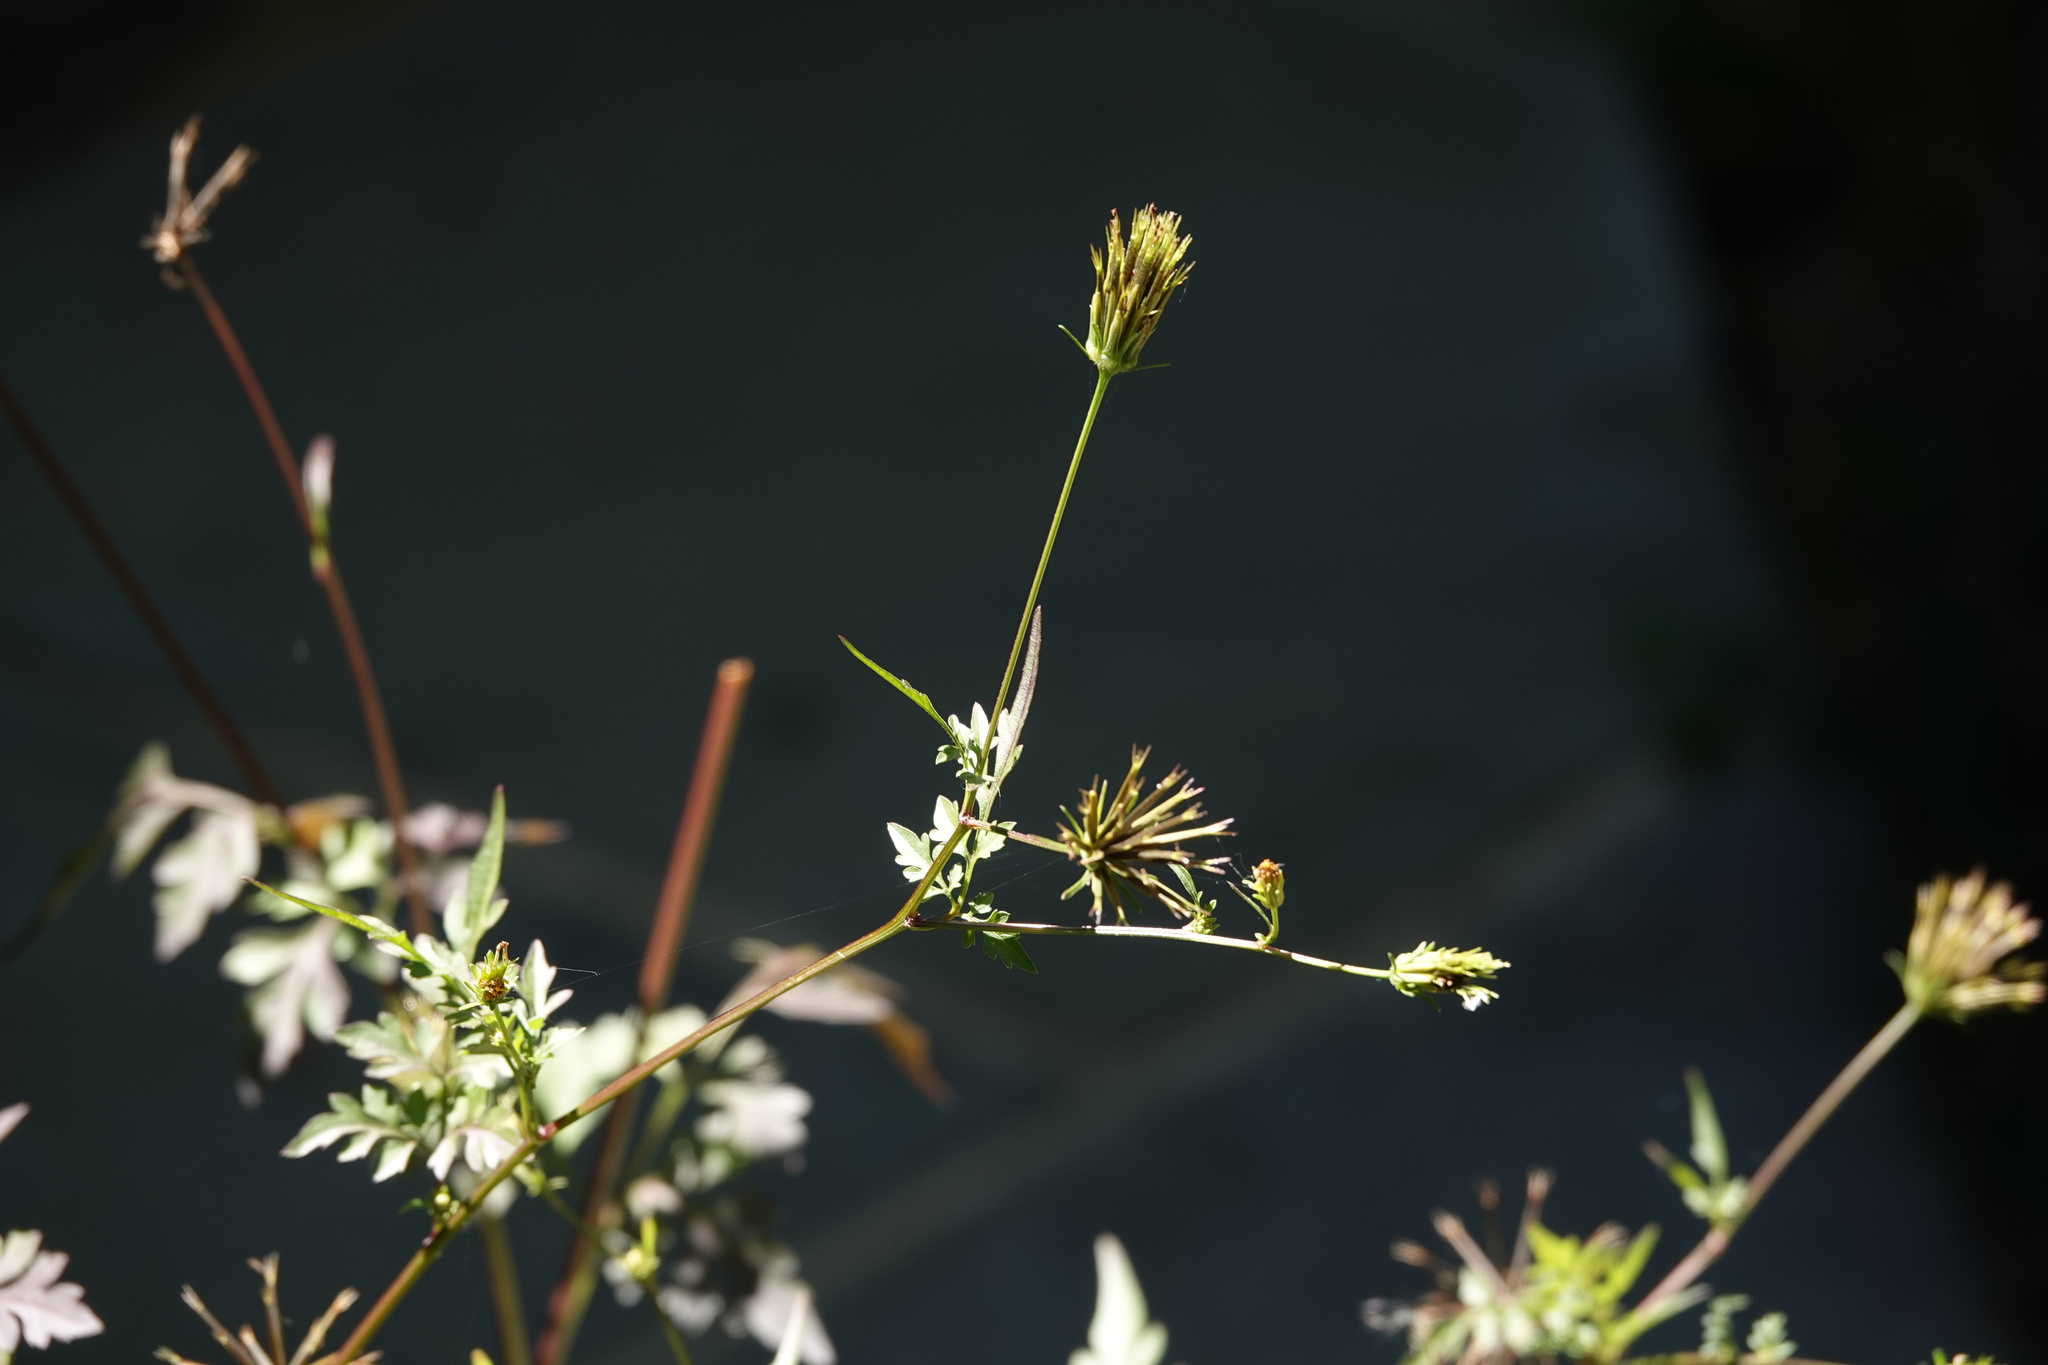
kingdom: Plantae
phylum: Tracheophyta
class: Magnoliopsida
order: Asterales
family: Asteraceae
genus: Bidens
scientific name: Bidens bipinnata
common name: Spanish-needles
